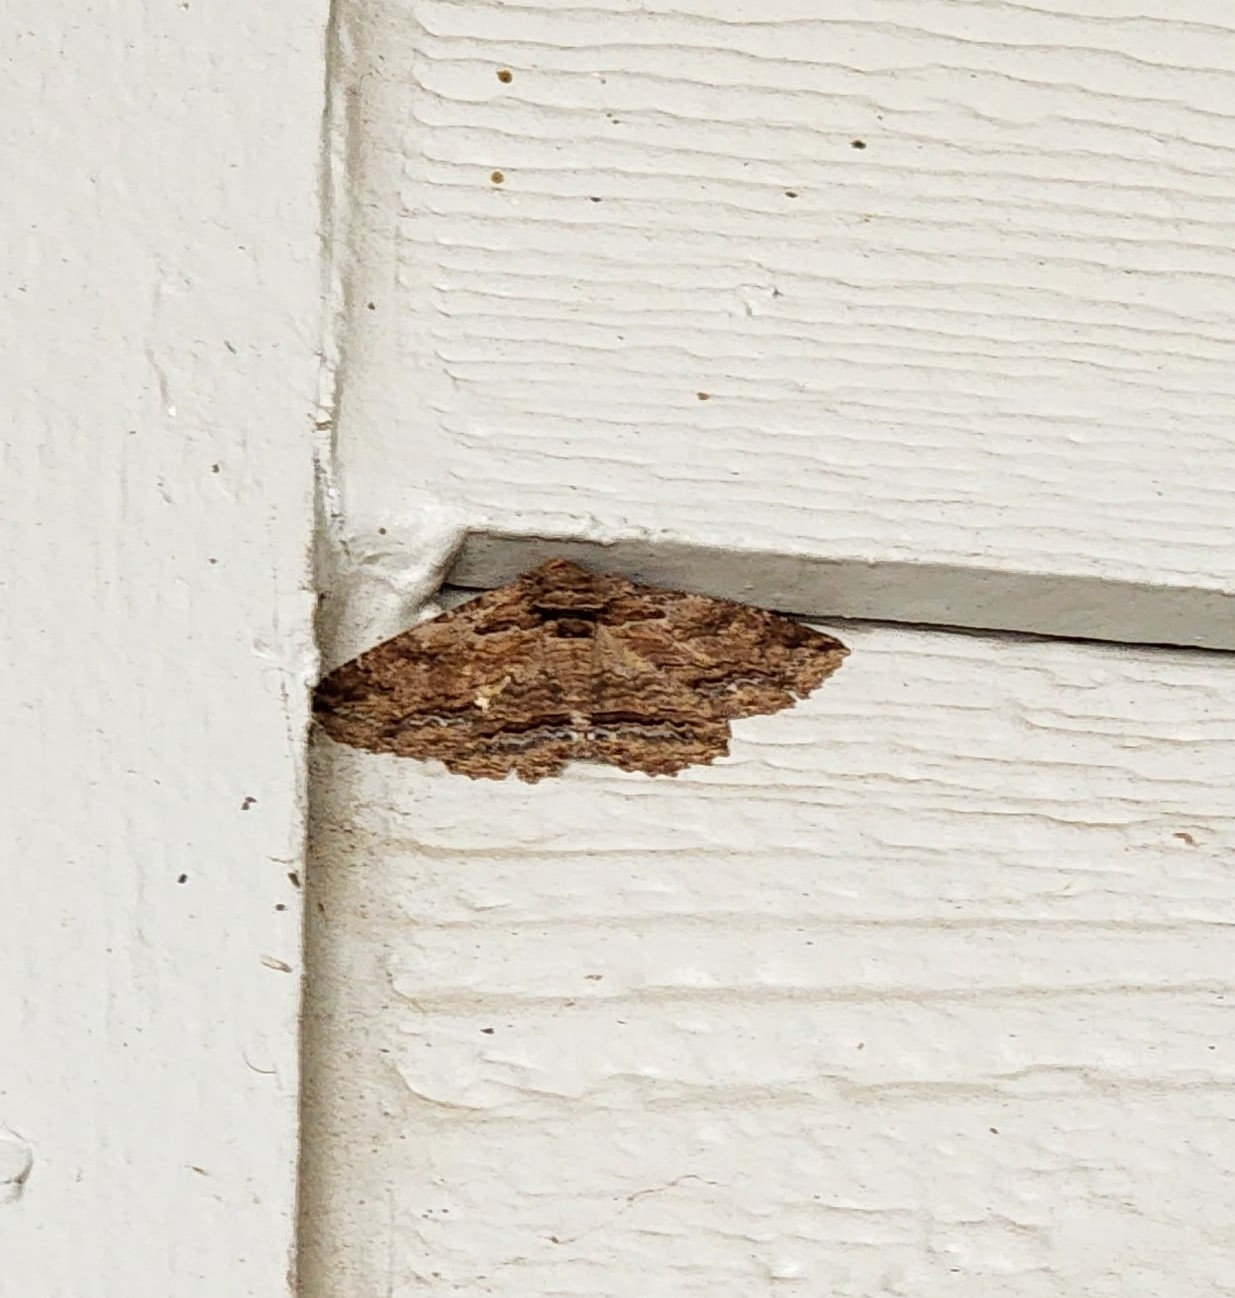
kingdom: Animalia
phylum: Arthropoda
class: Insecta
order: Lepidoptera
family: Erebidae
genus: Zale
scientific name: Zale lunata
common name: Lunate zale moth
